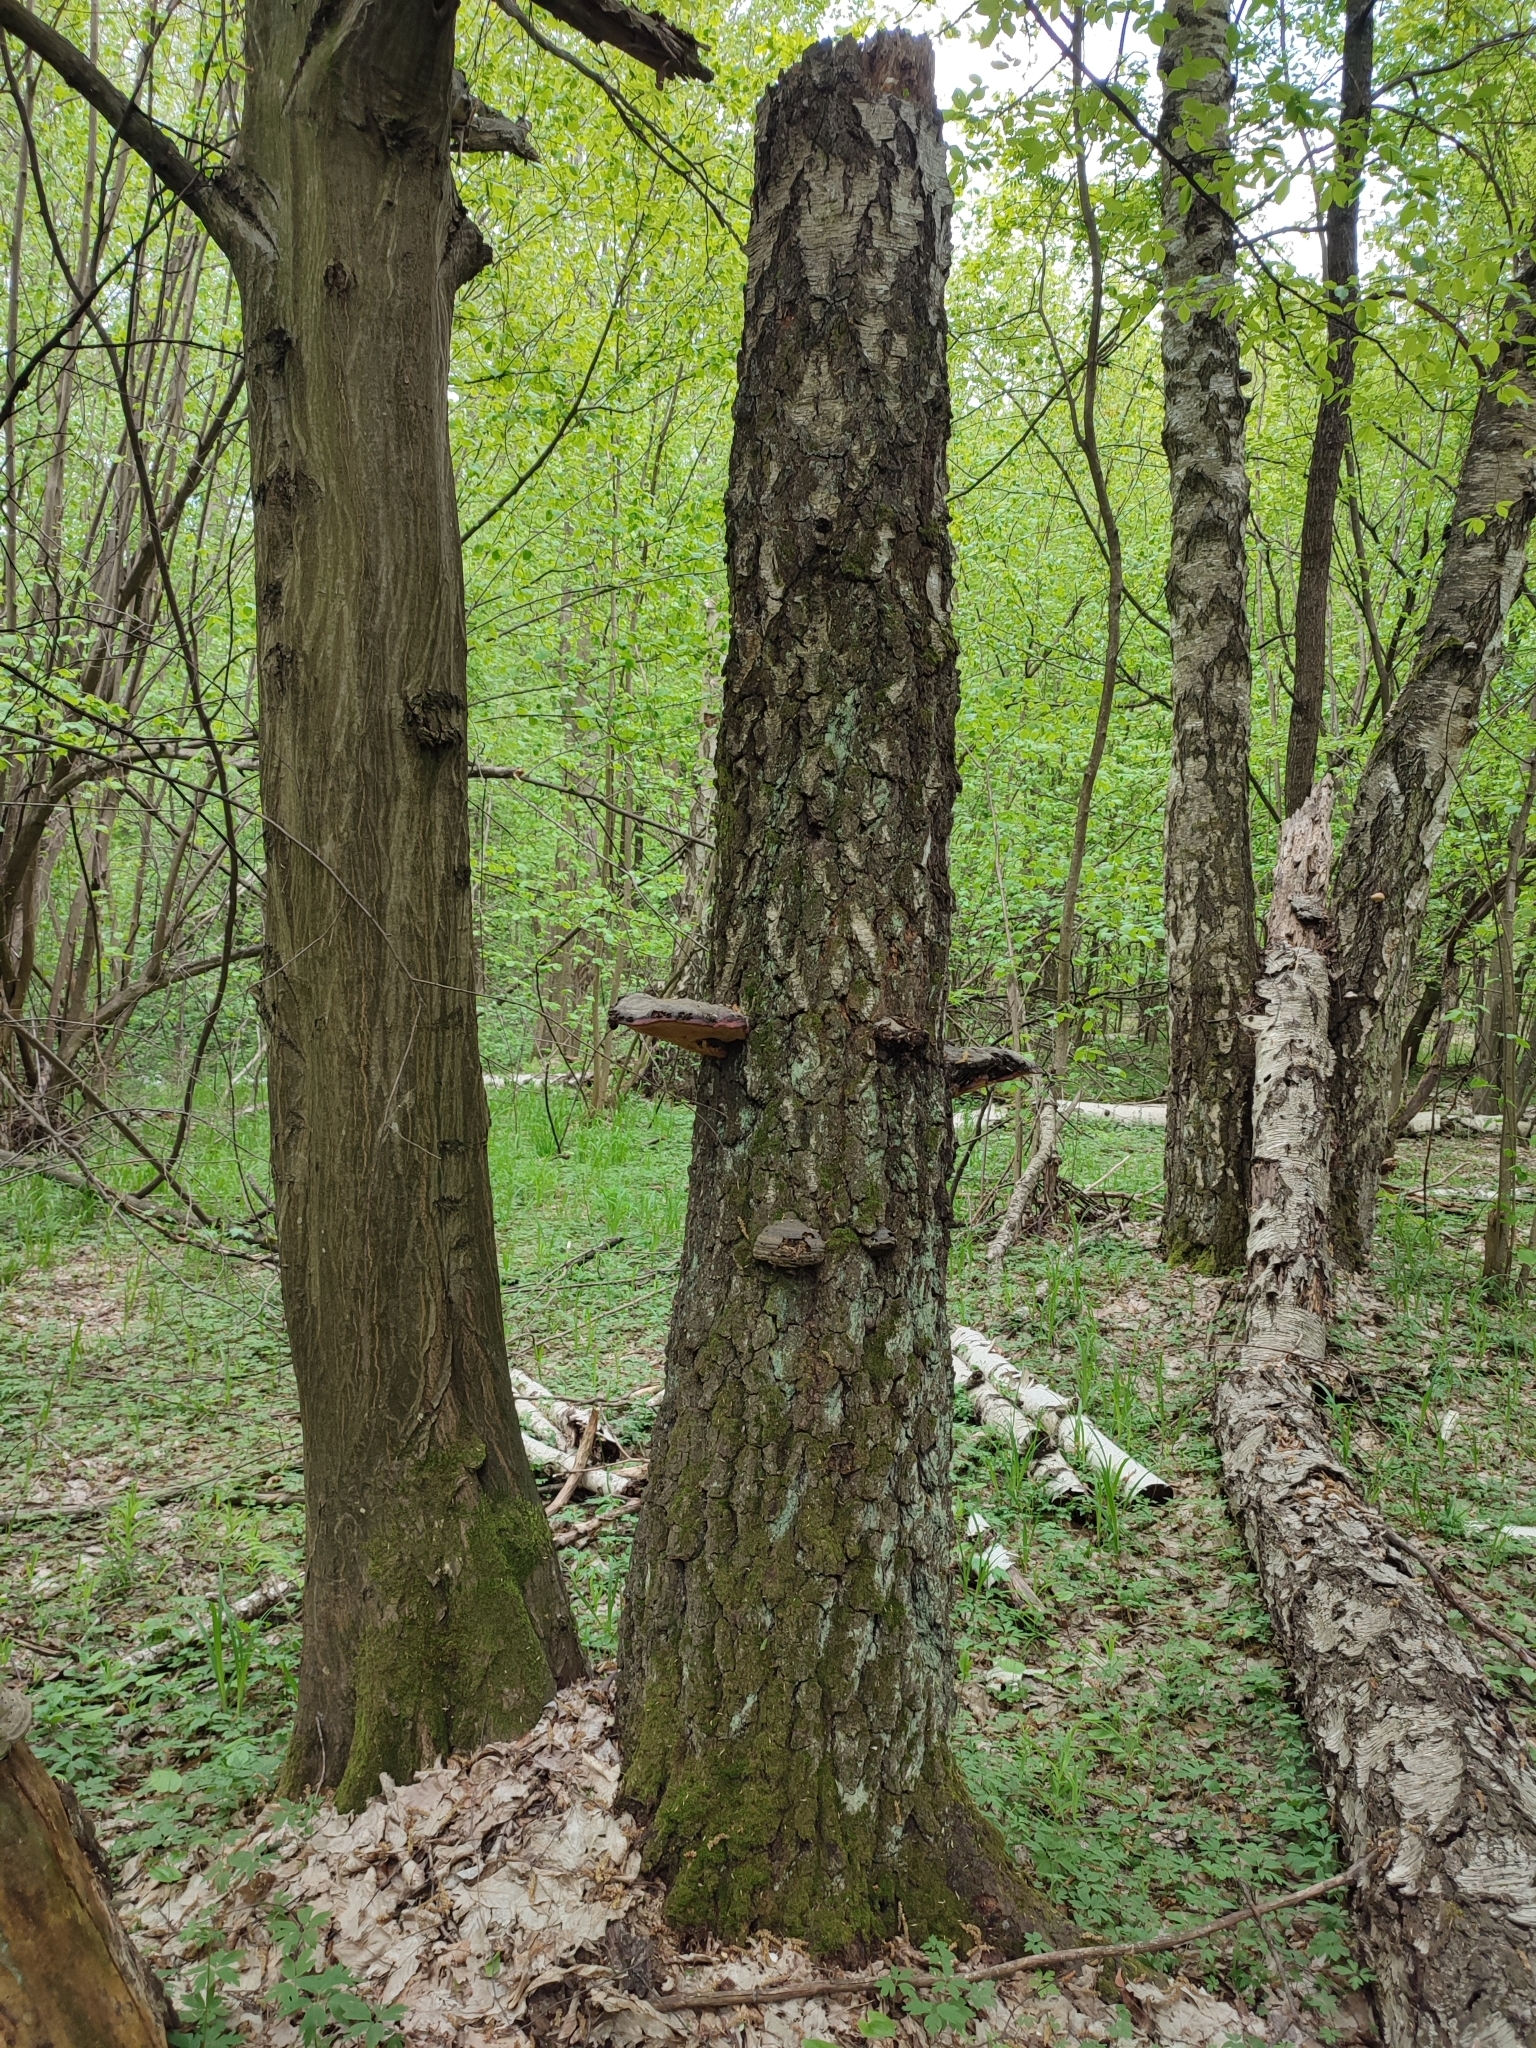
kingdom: Fungi
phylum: Basidiomycota
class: Agaricomycetes
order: Polyporales
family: Fomitopsidaceae
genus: Fomitopsis
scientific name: Fomitopsis pinicola
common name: Red-belted bracket
